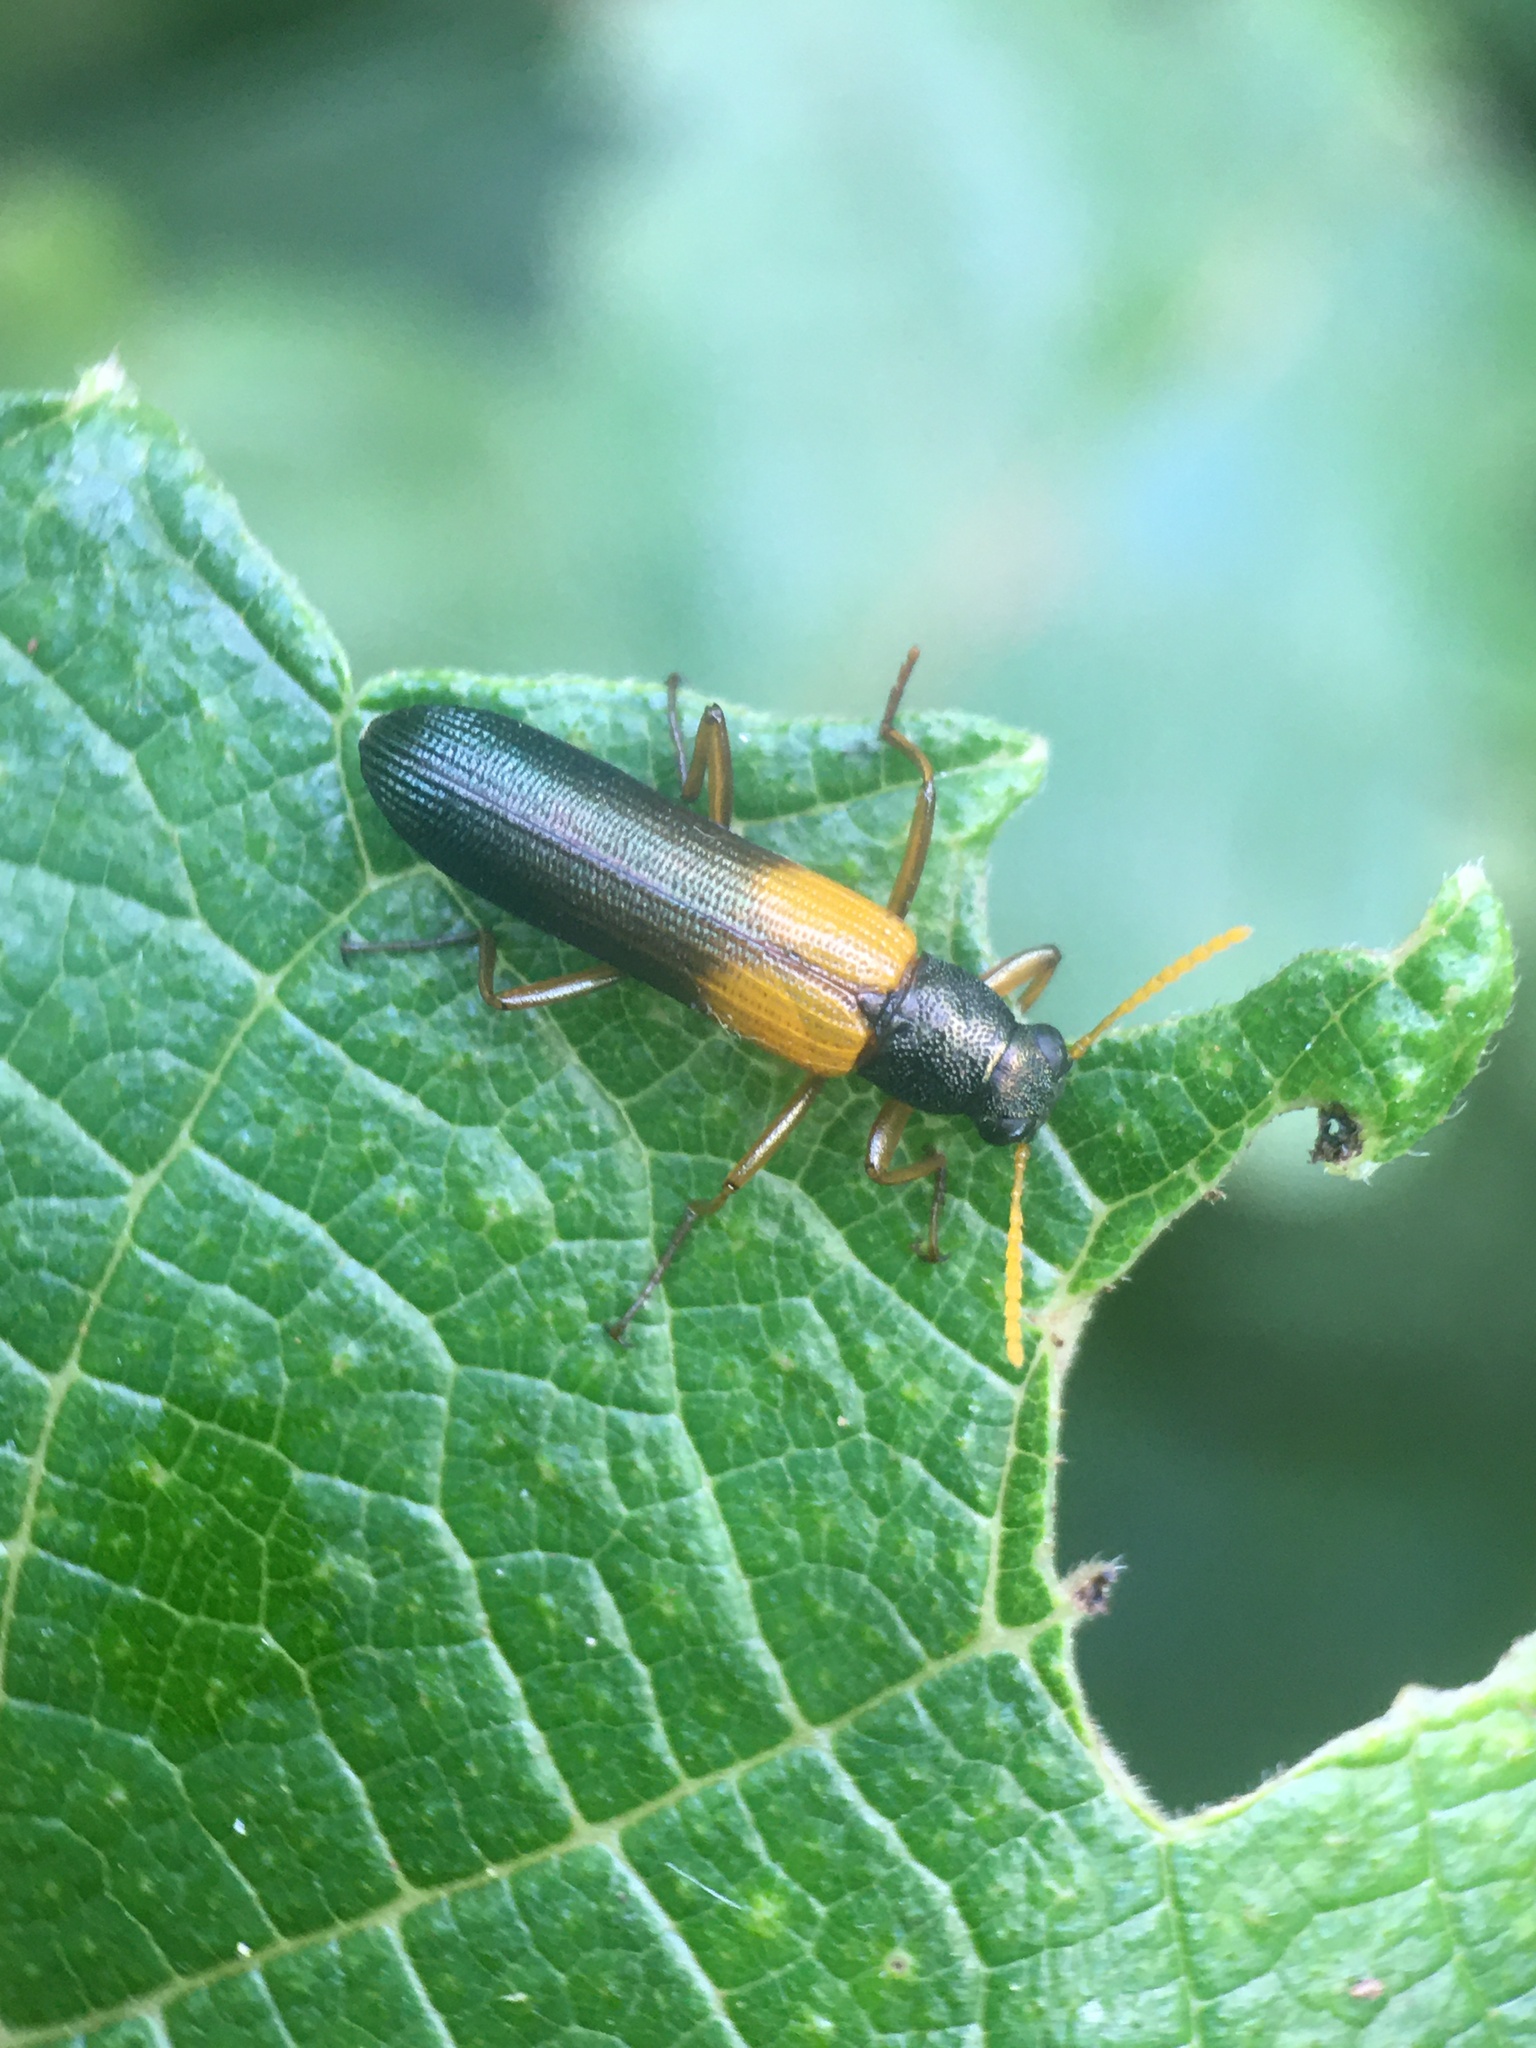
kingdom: Animalia
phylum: Arthropoda
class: Insecta
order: Coleoptera
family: Tenebrionidae
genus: Strongylium
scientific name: Strongylium
